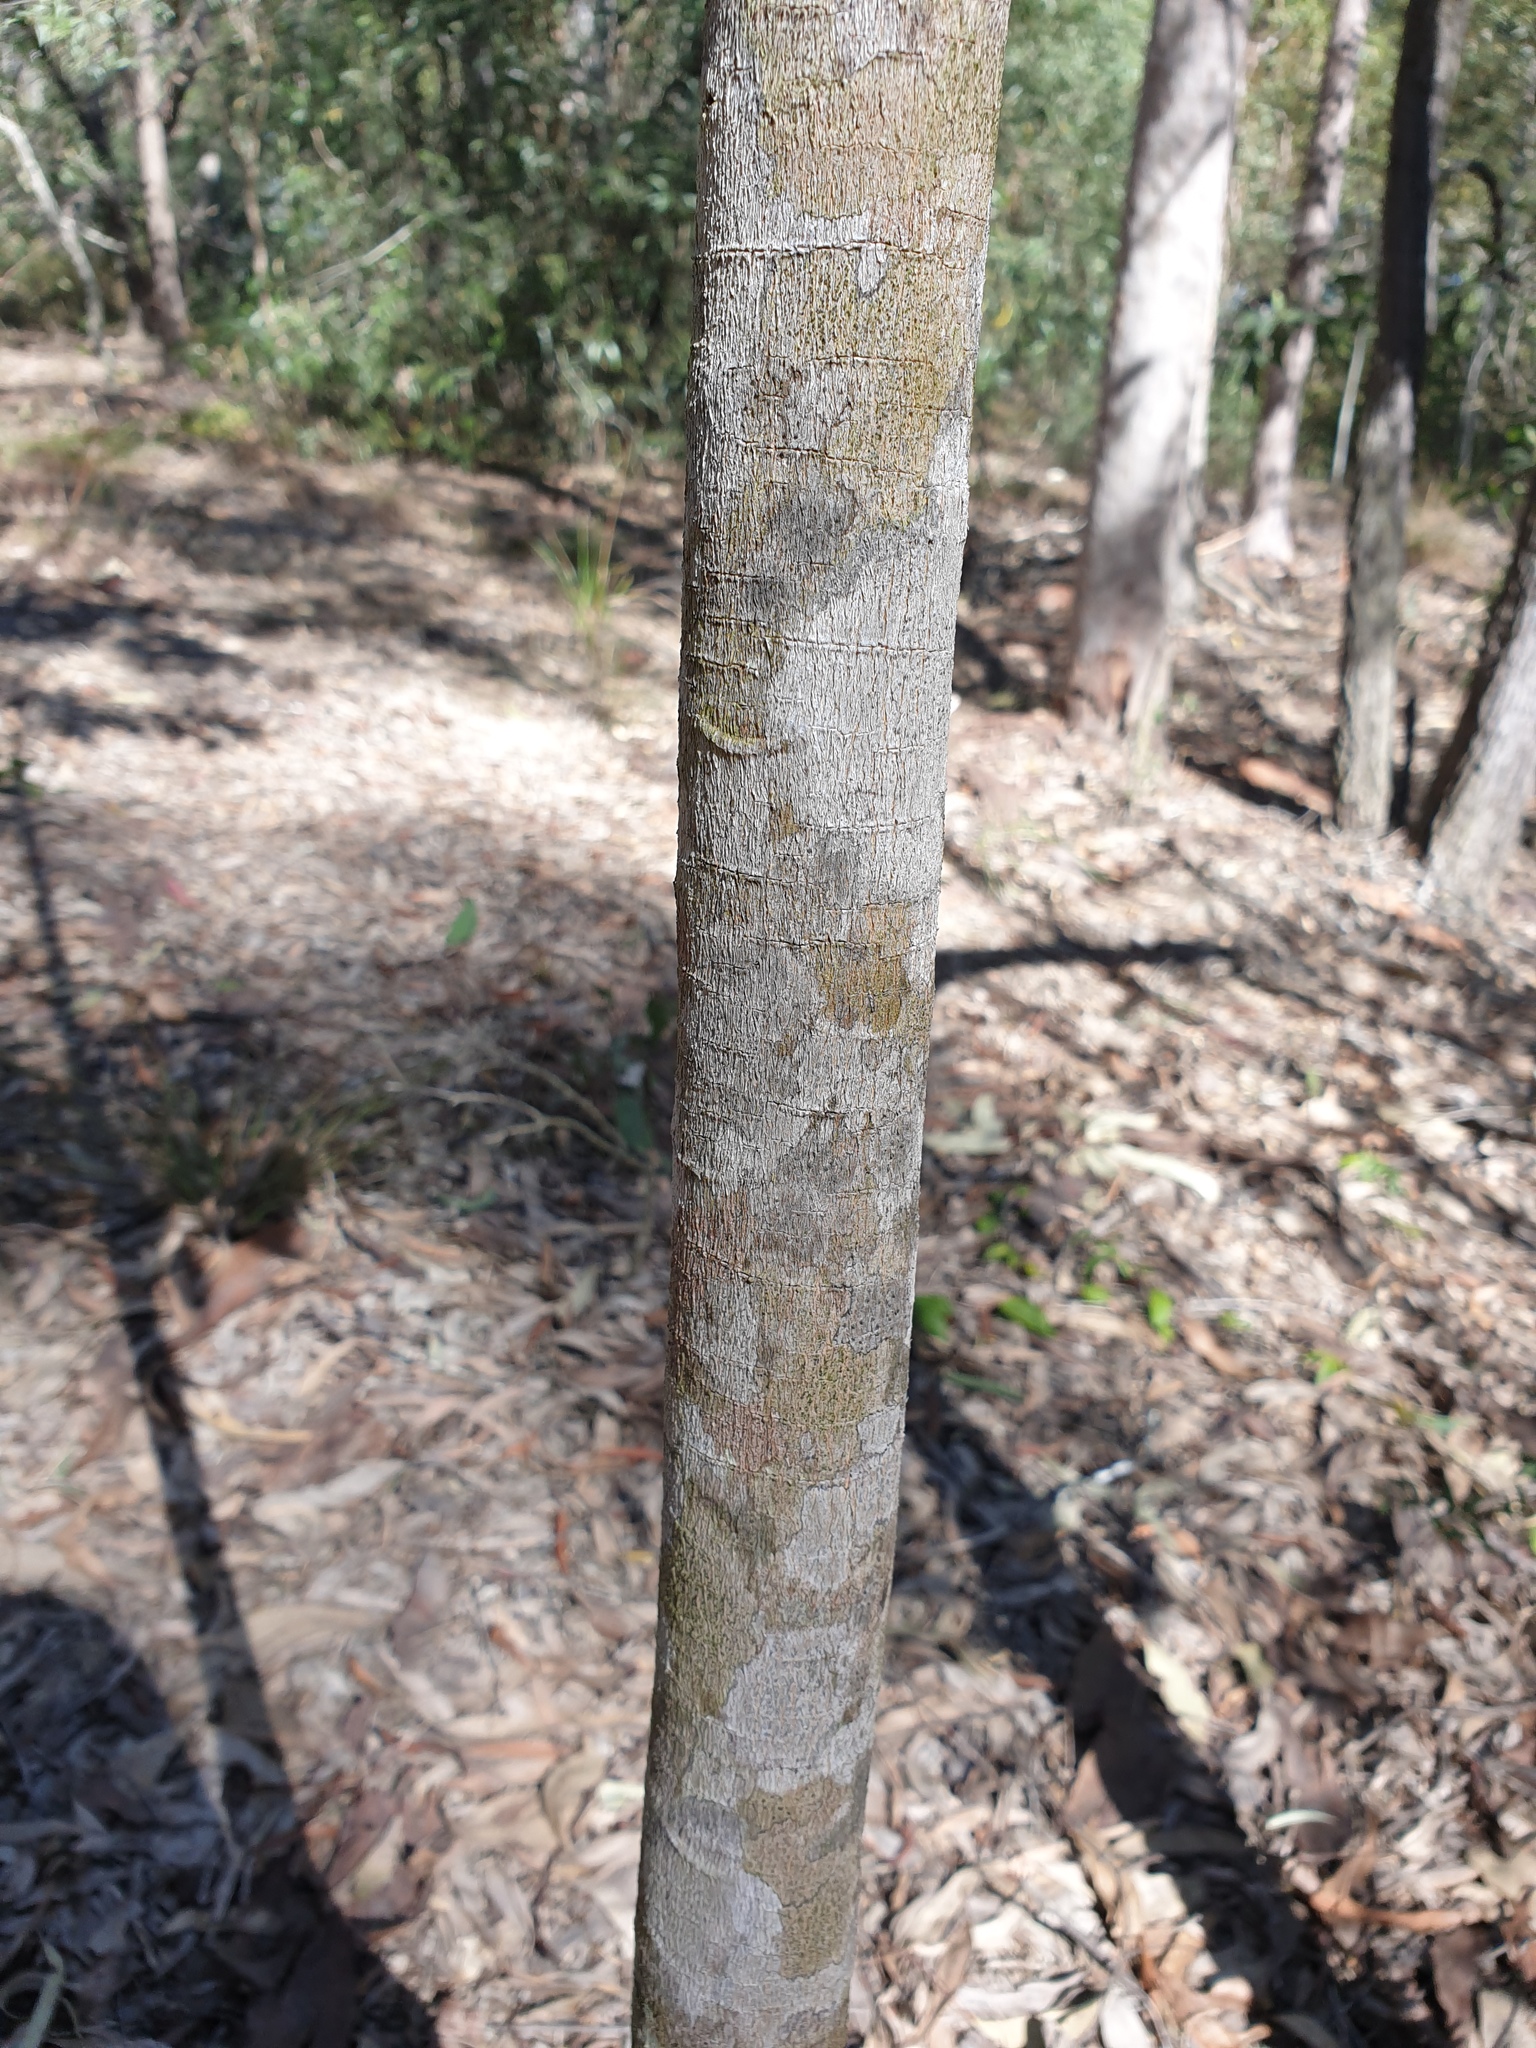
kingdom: Plantae
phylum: Tracheophyta
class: Magnoliopsida
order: Sapindales
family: Rutaceae
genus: Flindersia
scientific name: Flindersia australis
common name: Australian-teak
